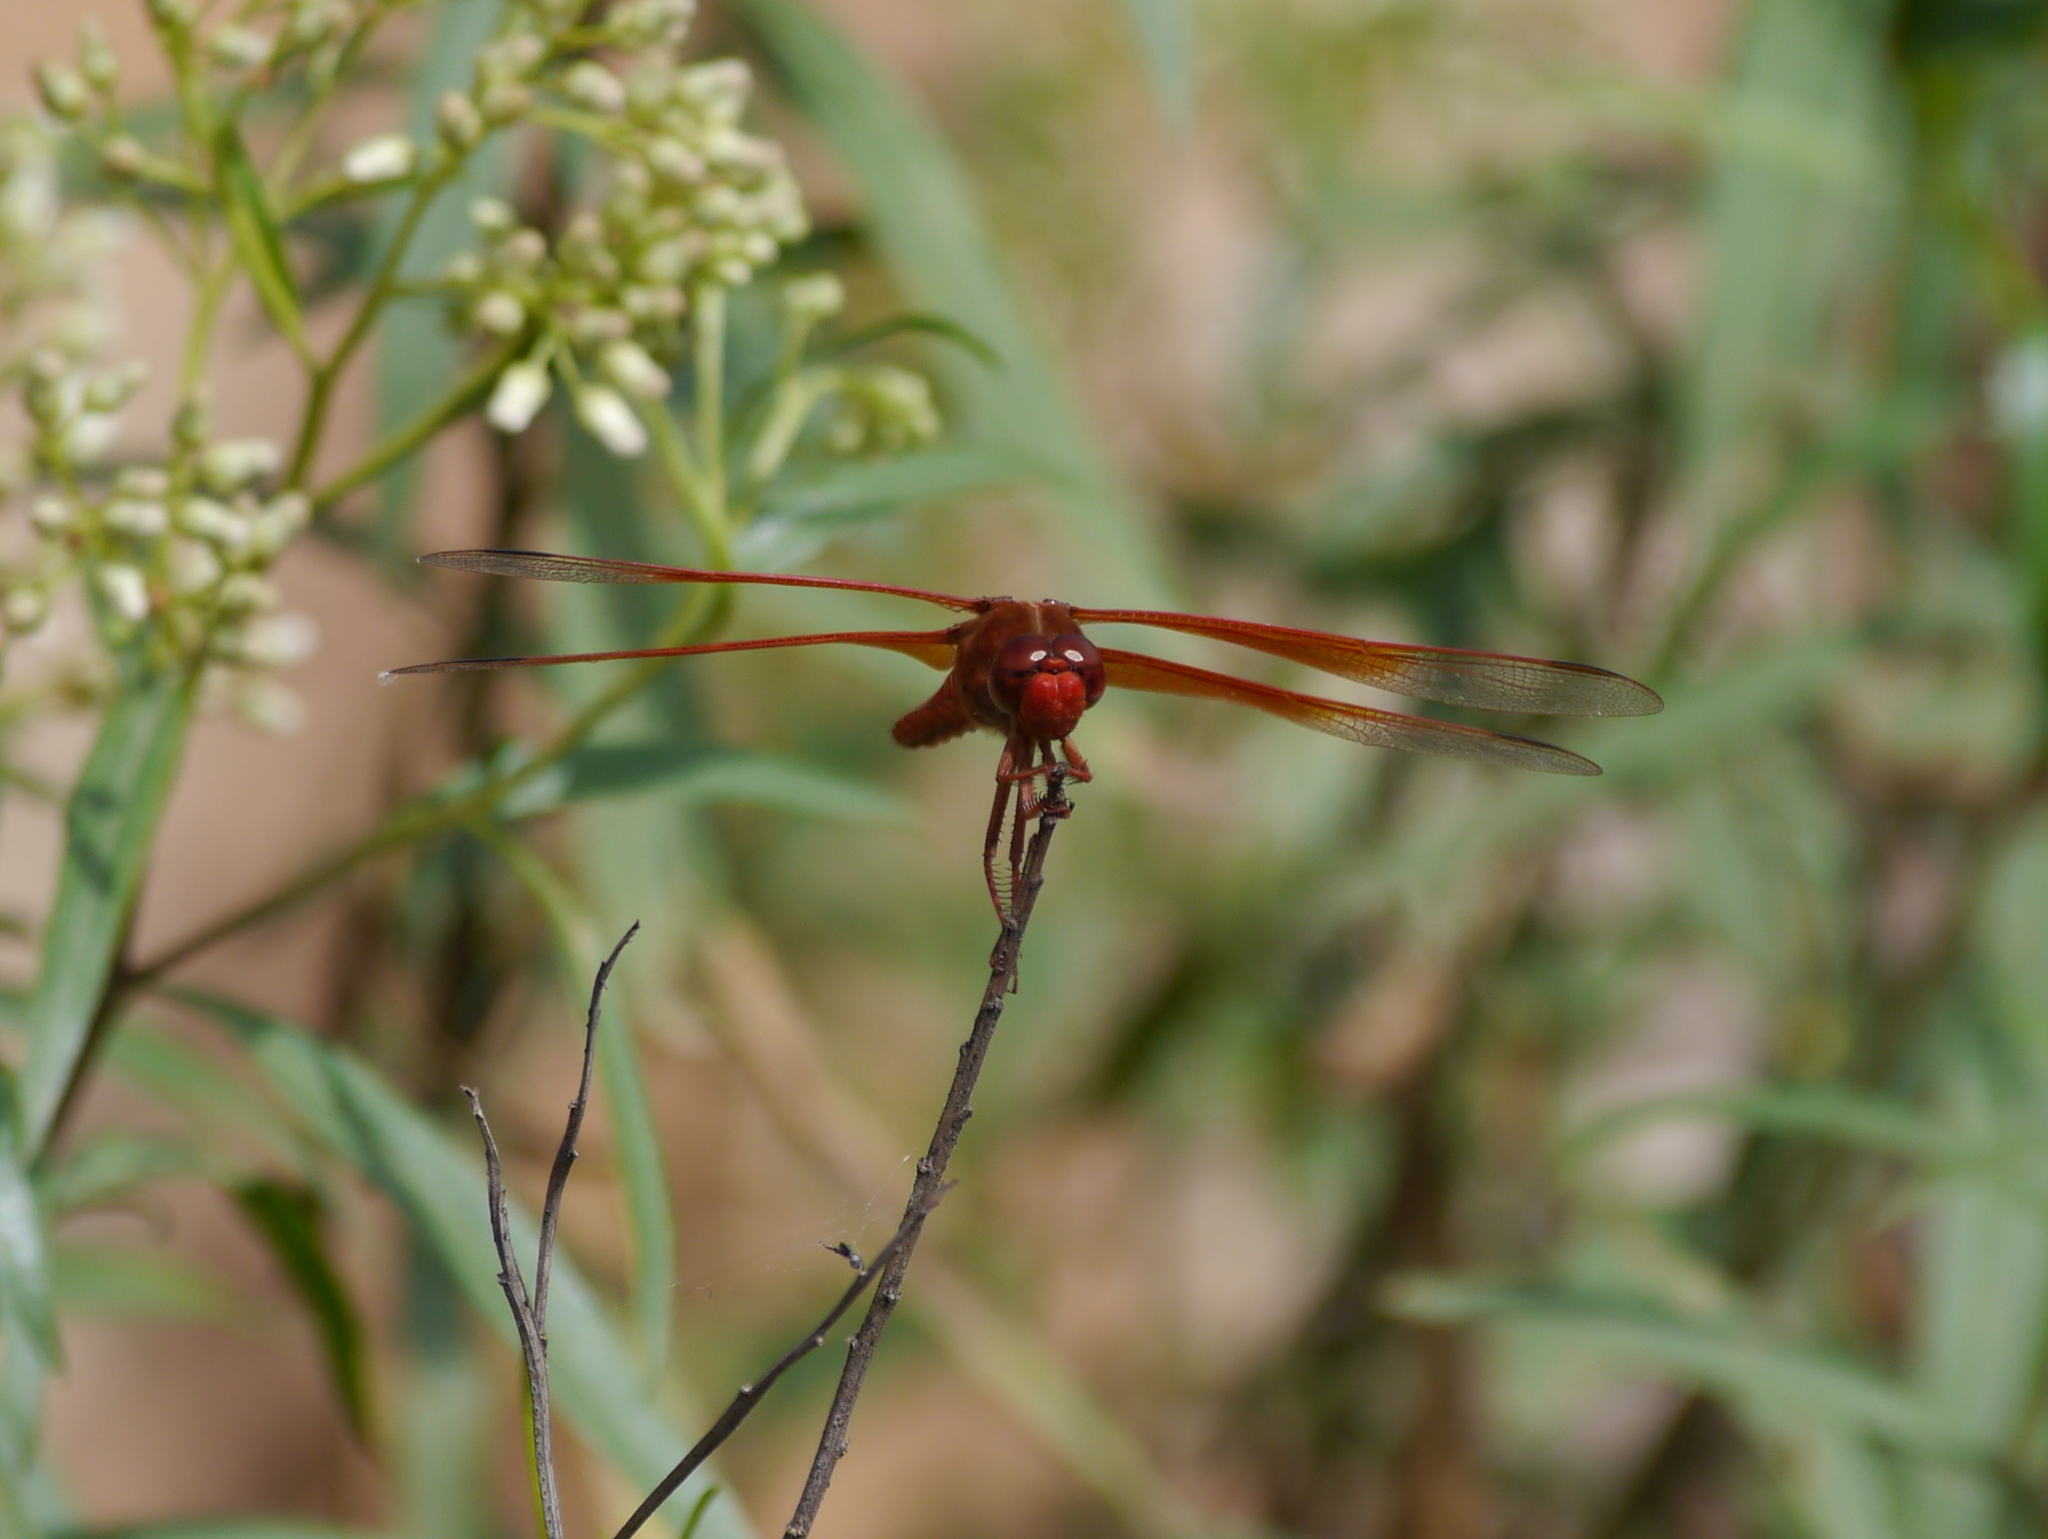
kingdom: Animalia
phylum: Arthropoda
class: Insecta
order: Odonata
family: Libellulidae
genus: Libellula
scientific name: Libellula saturata
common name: Flame skimmer
